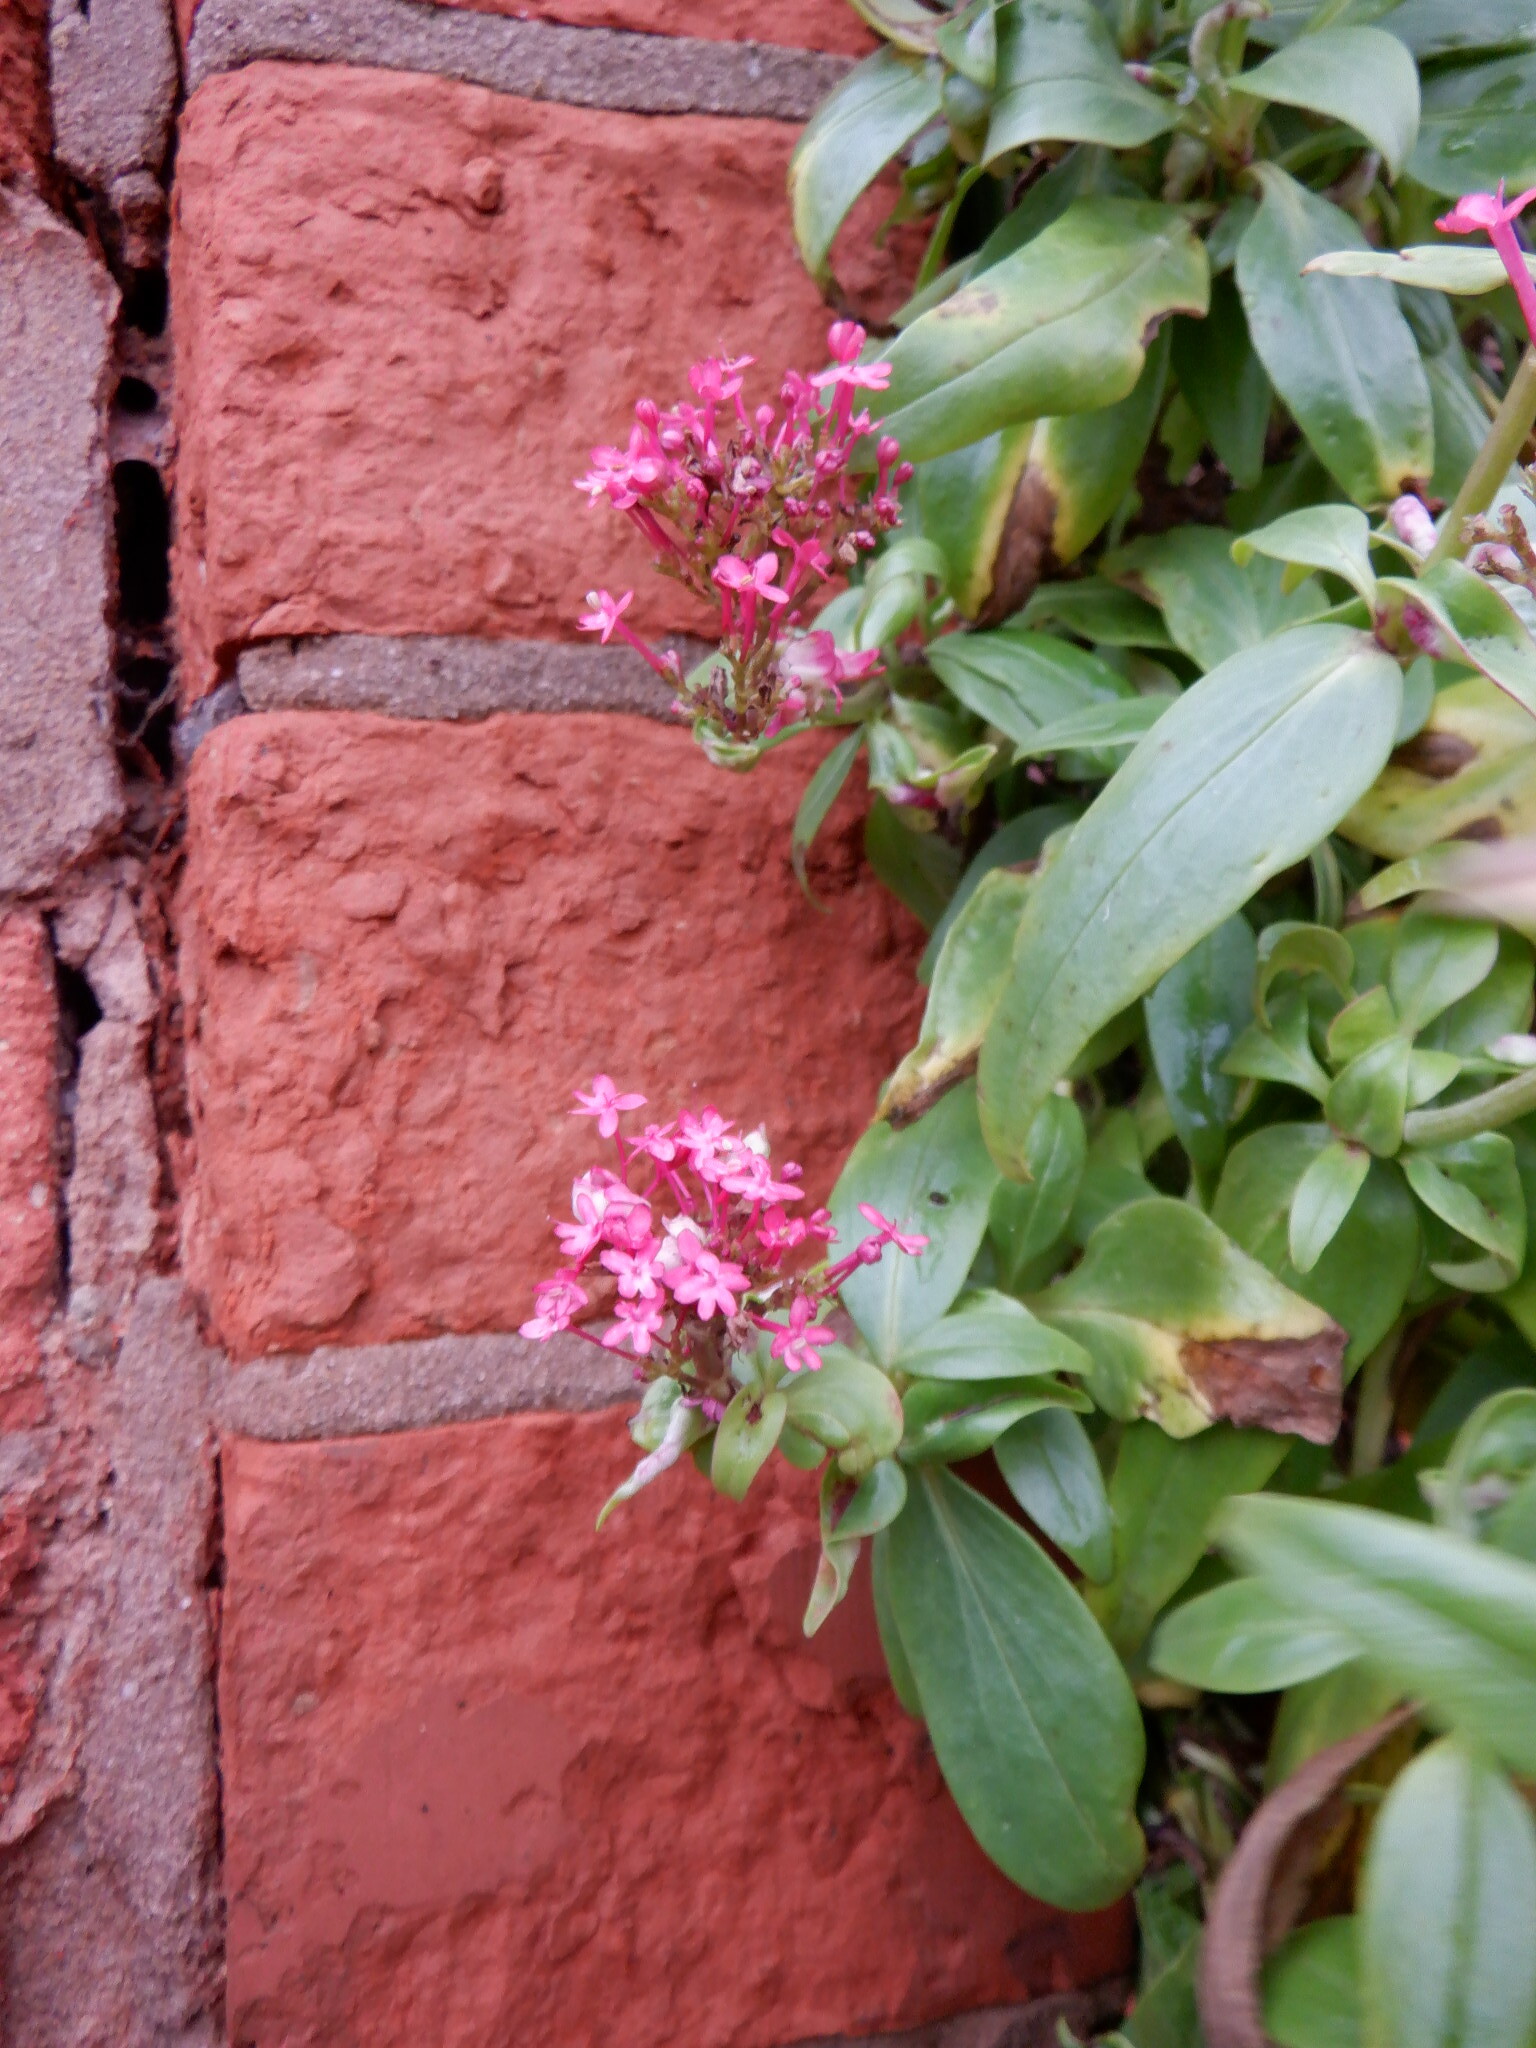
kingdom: Plantae
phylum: Tracheophyta
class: Magnoliopsida
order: Dipsacales
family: Caprifoliaceae
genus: Centranthus
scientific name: Centranthus ruber
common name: Red valerian
